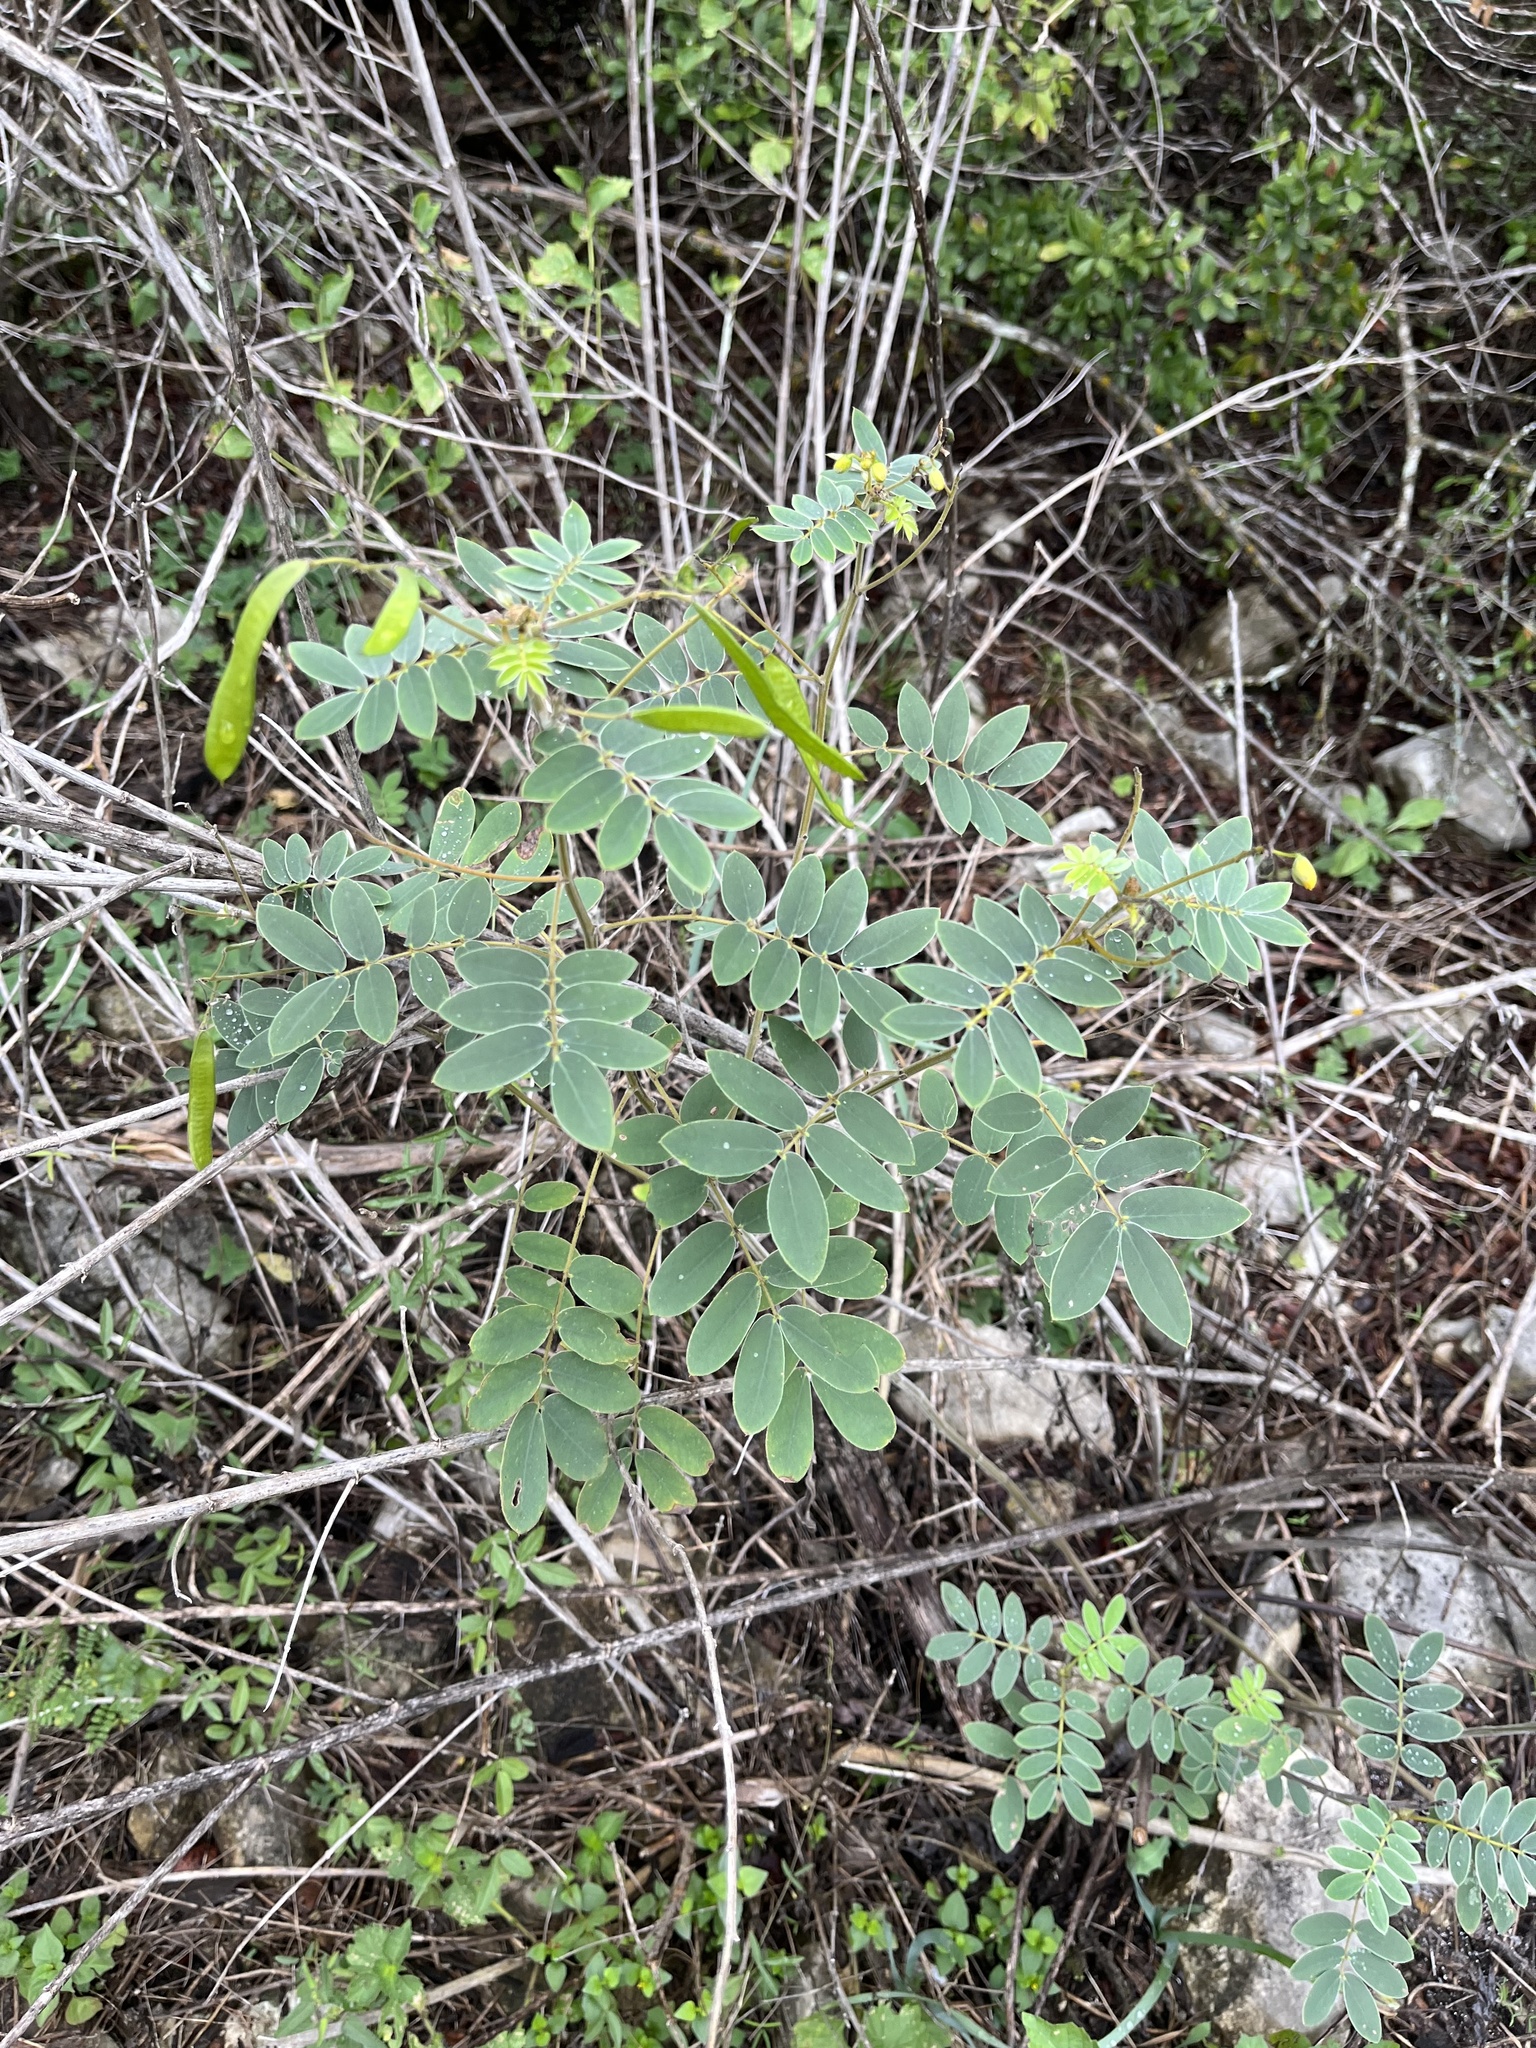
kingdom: Plantae
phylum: Tracheophyta
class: Magnoliopsida
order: Fabales
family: Fabaceae
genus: Senna
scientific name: Senna lindheimeriana
